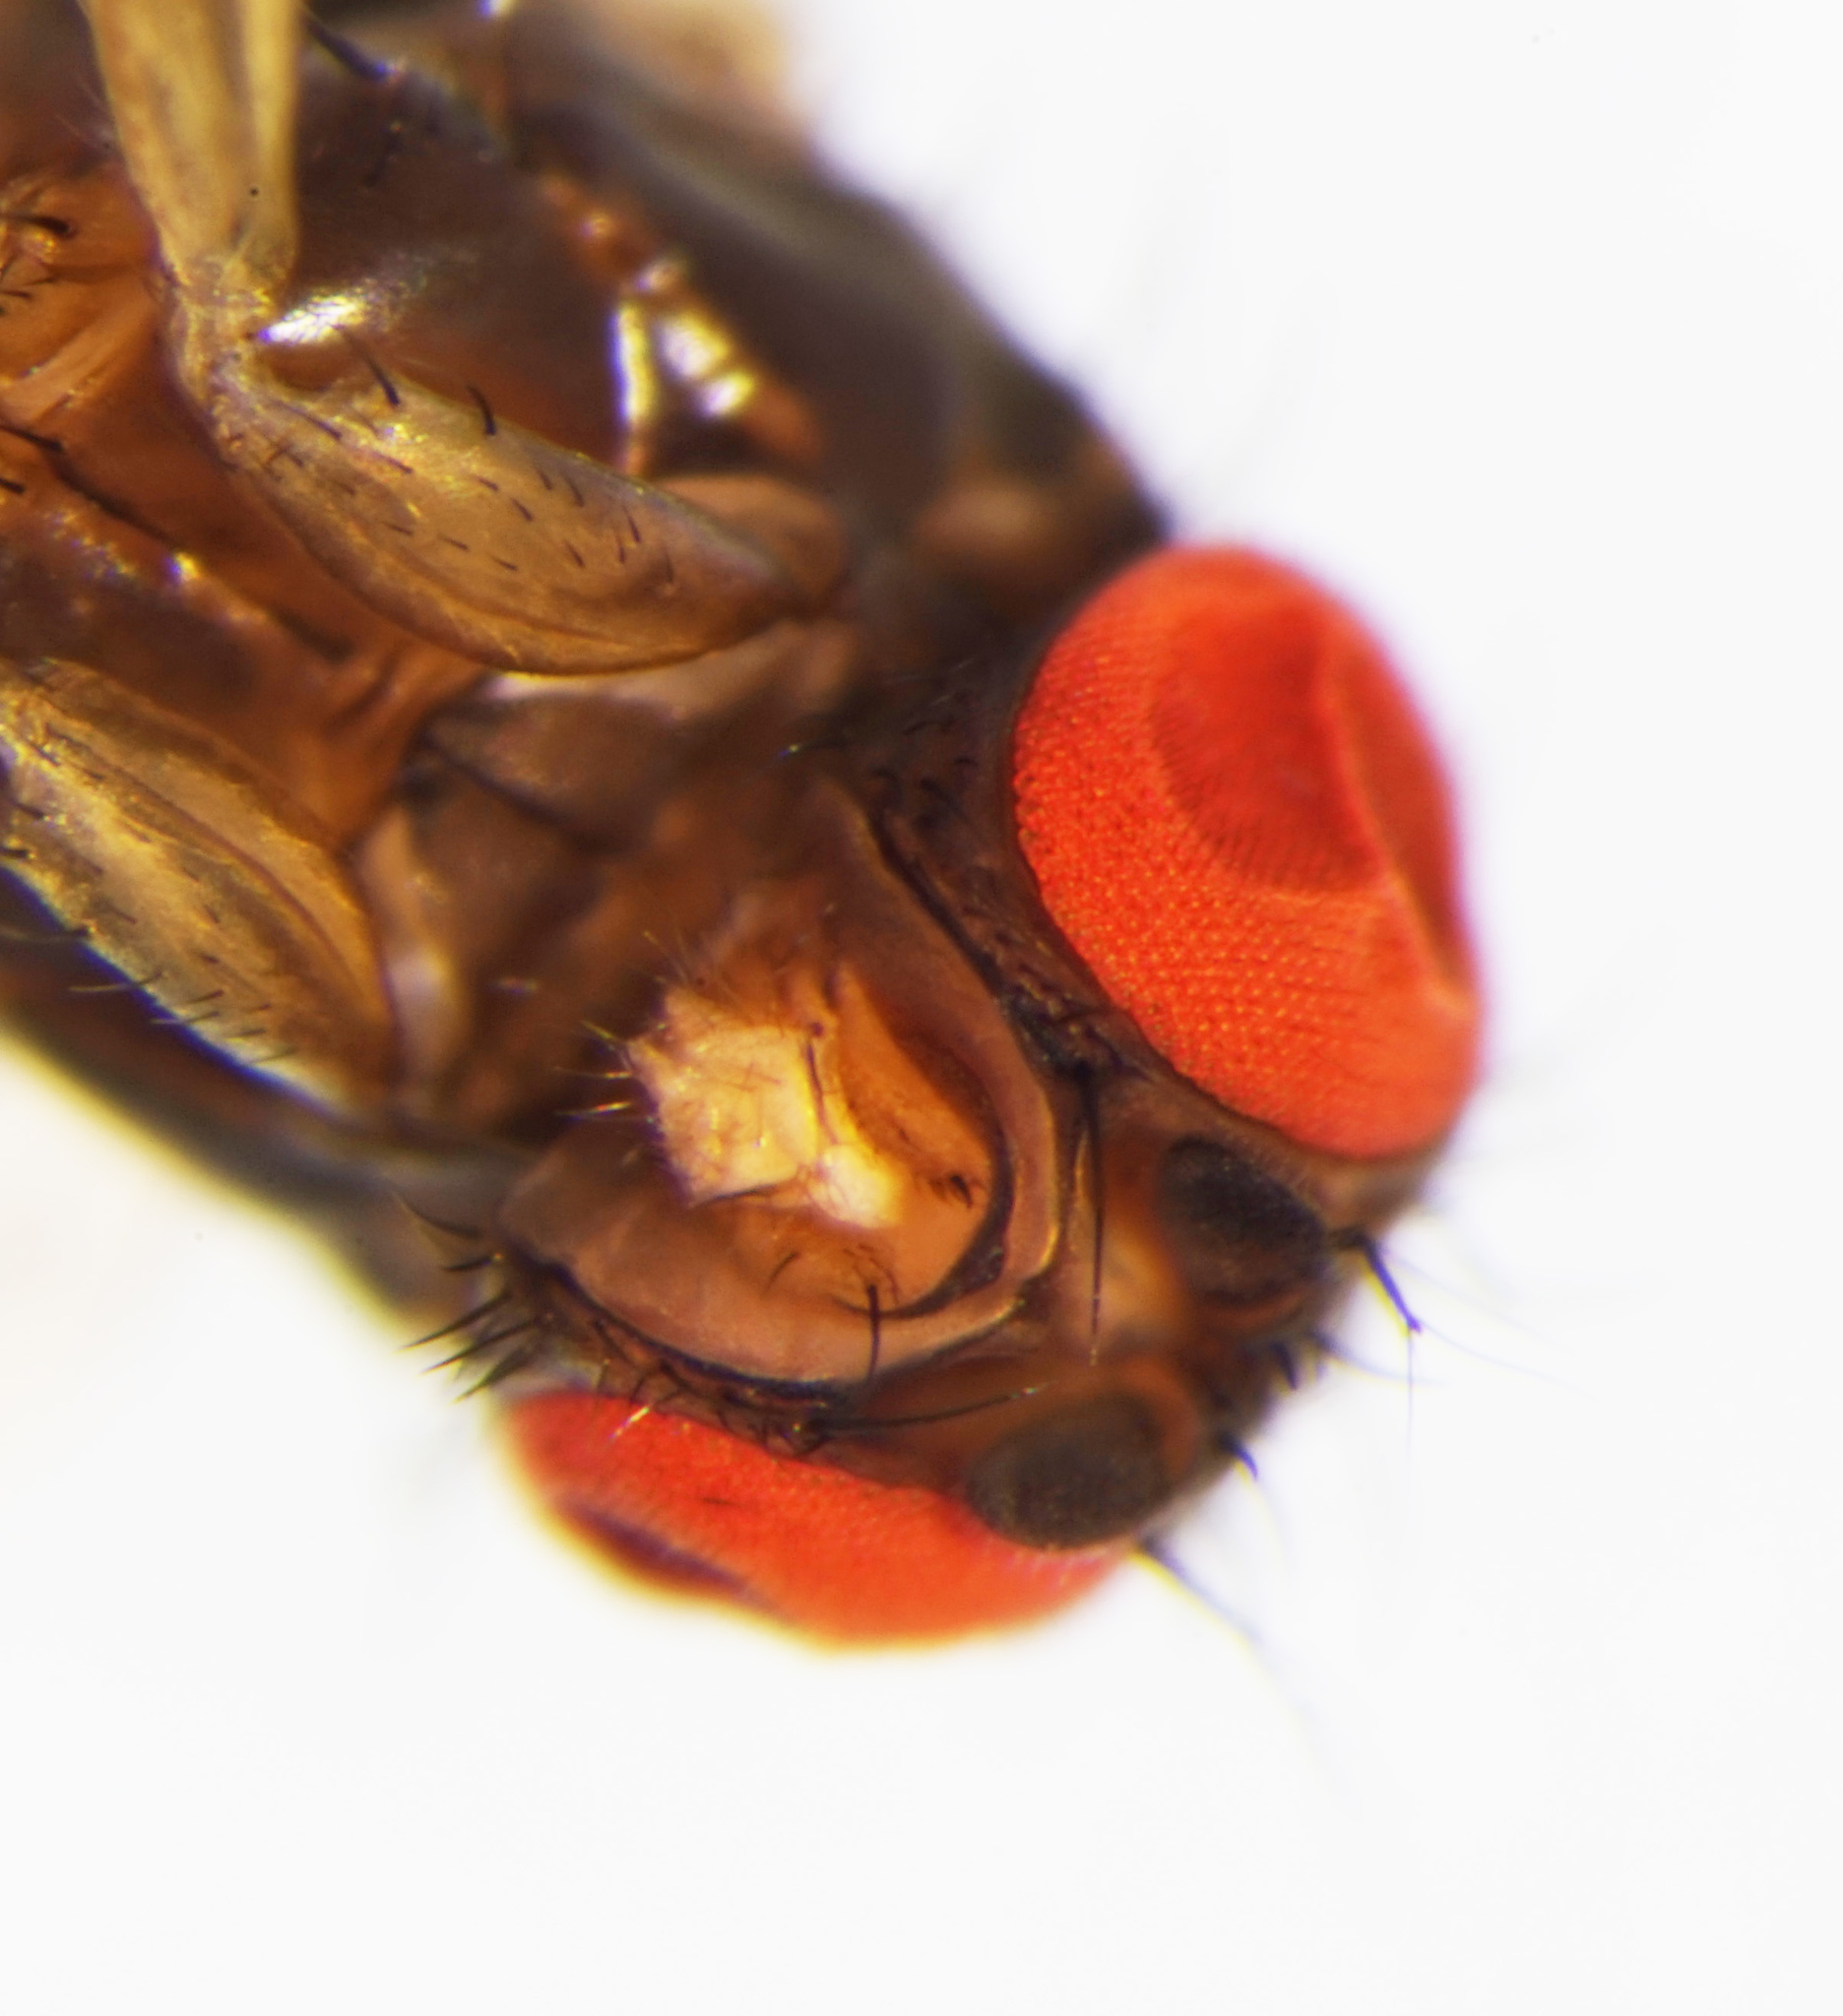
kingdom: Animalia
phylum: Arthropoda
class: Insecta
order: Diptera
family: Drosophilidae
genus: Drosophila
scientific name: Drosophila subobscura
